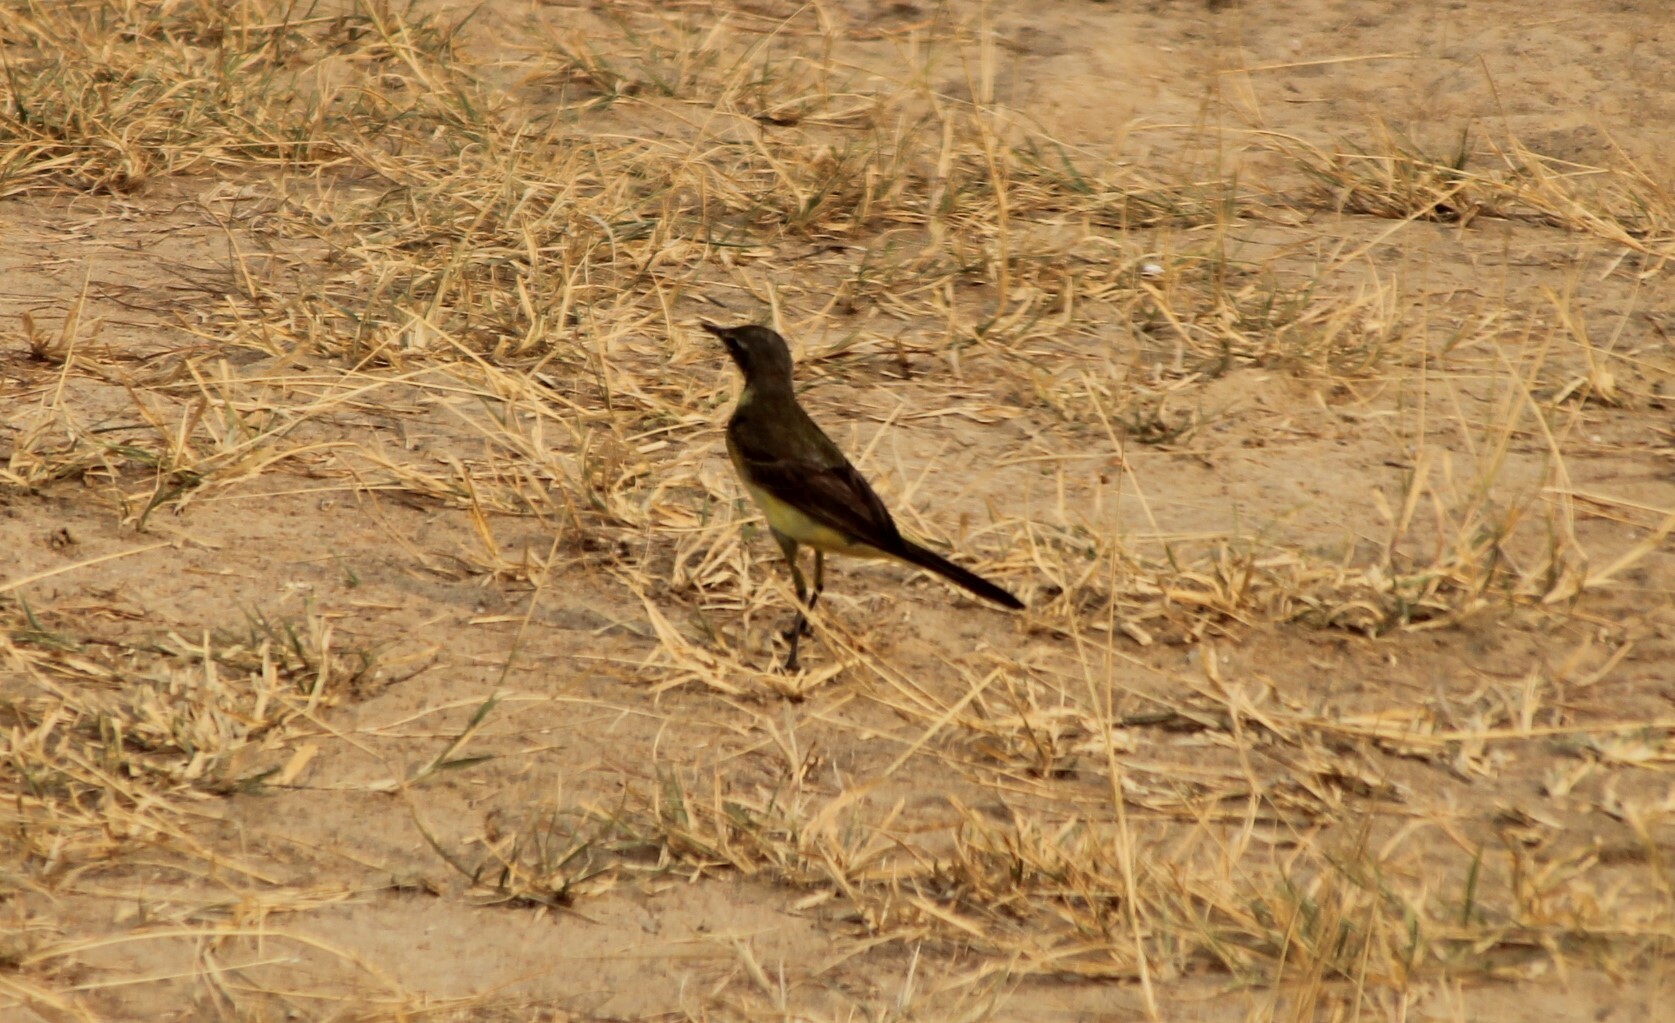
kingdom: Animalia
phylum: Chordata
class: Aves
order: Passeriformes
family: Motacillidae
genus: Motacilla
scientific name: Motacilla flava
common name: Western yellow wagtail
